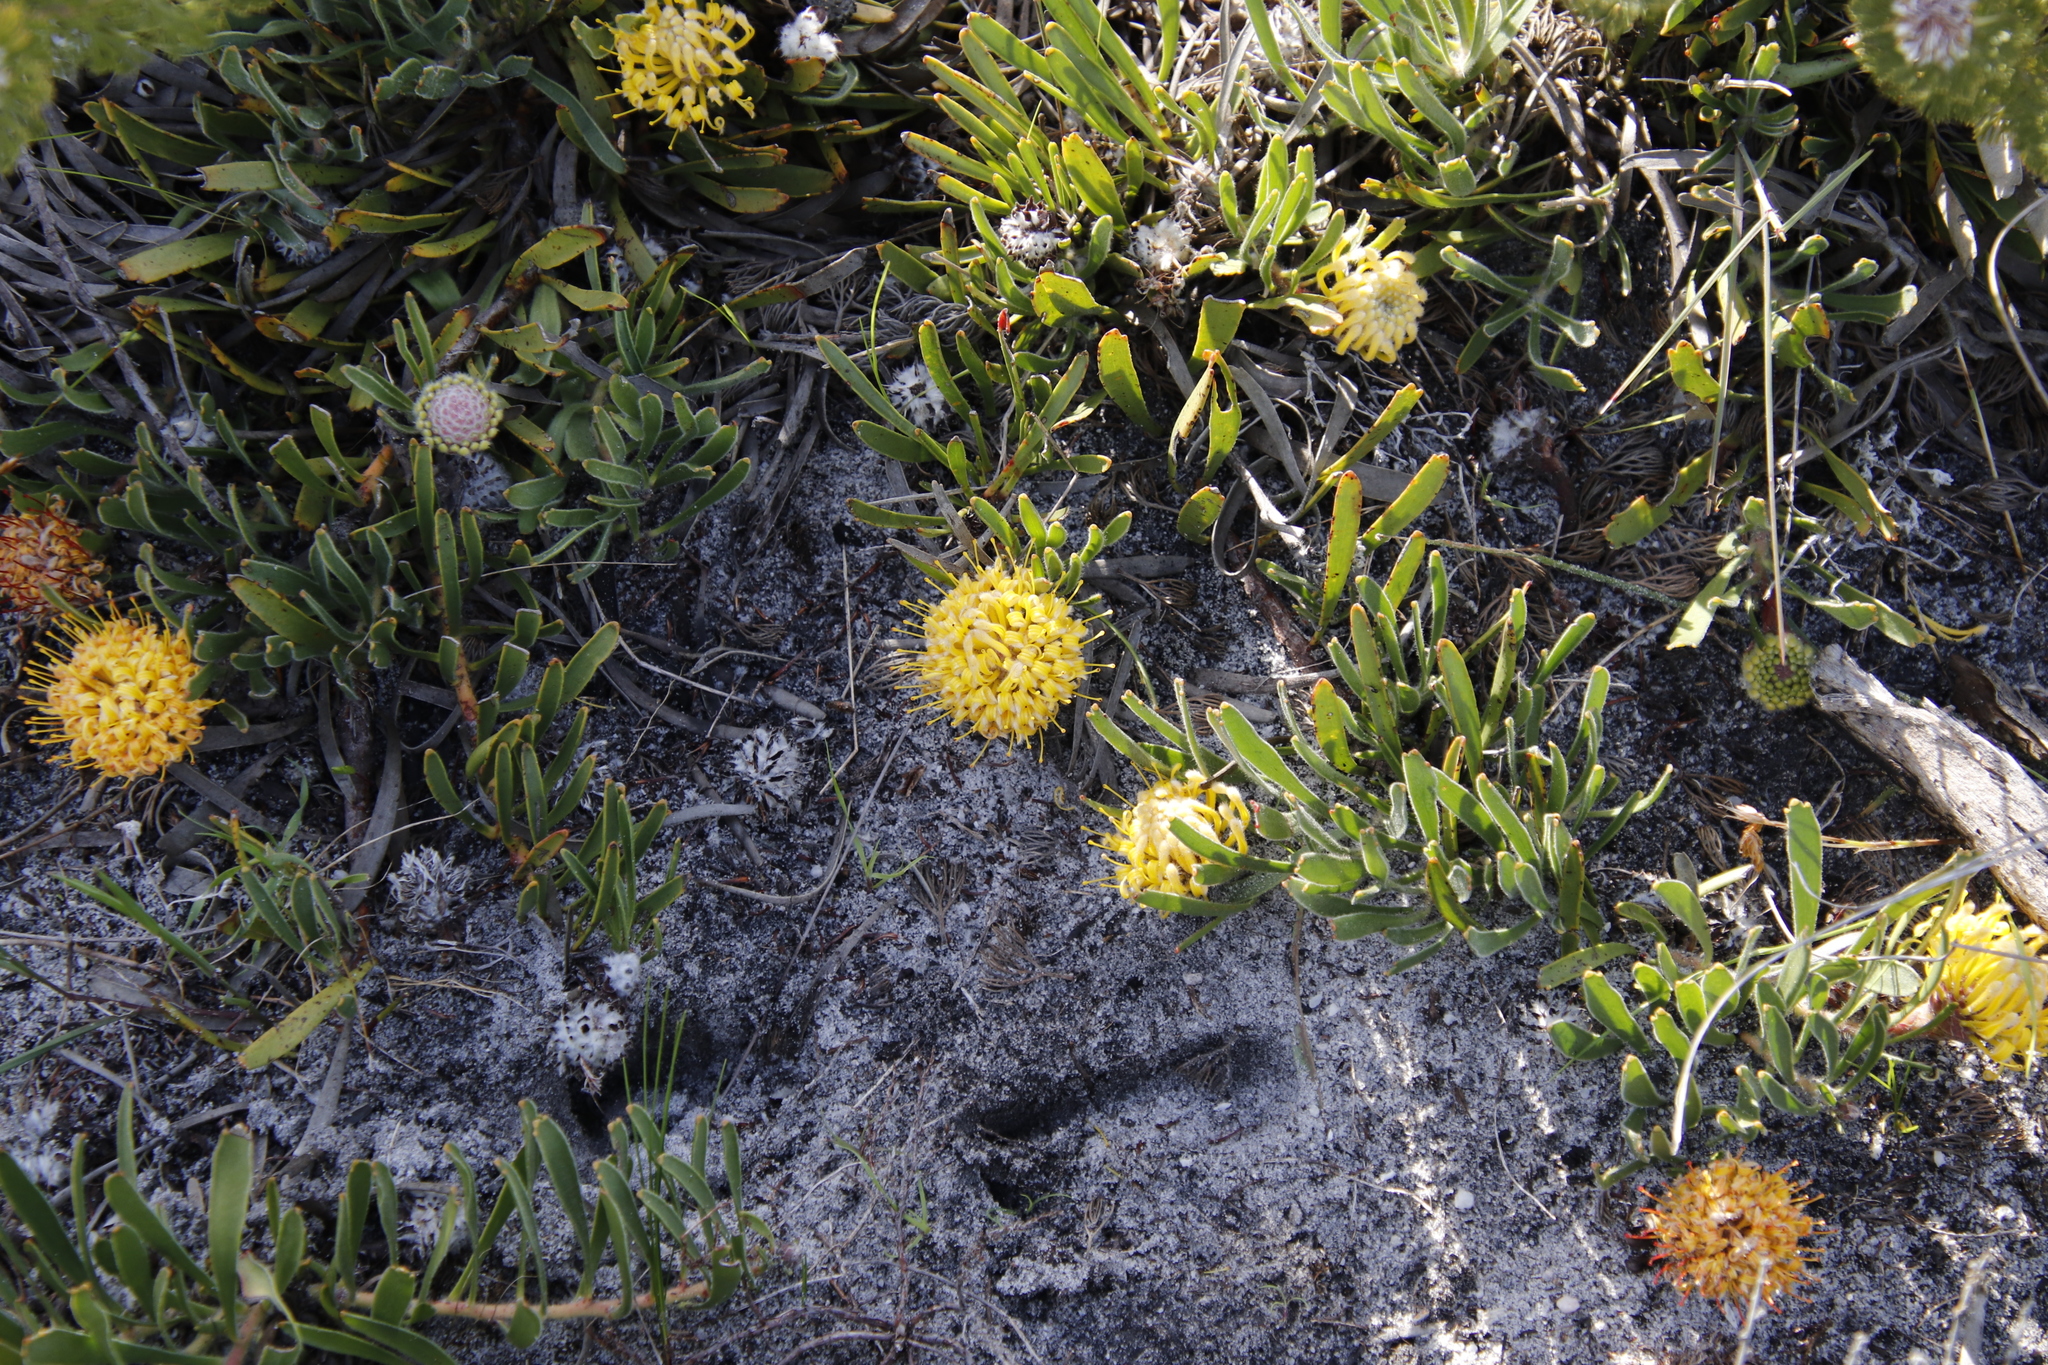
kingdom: Plantae
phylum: Tracheophyta
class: Magnoliopsida
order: Proteales
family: Proteaceae
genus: Leucospermum
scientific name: Leucospermum hypophyllocarpodendron
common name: Snakestem pincushion
